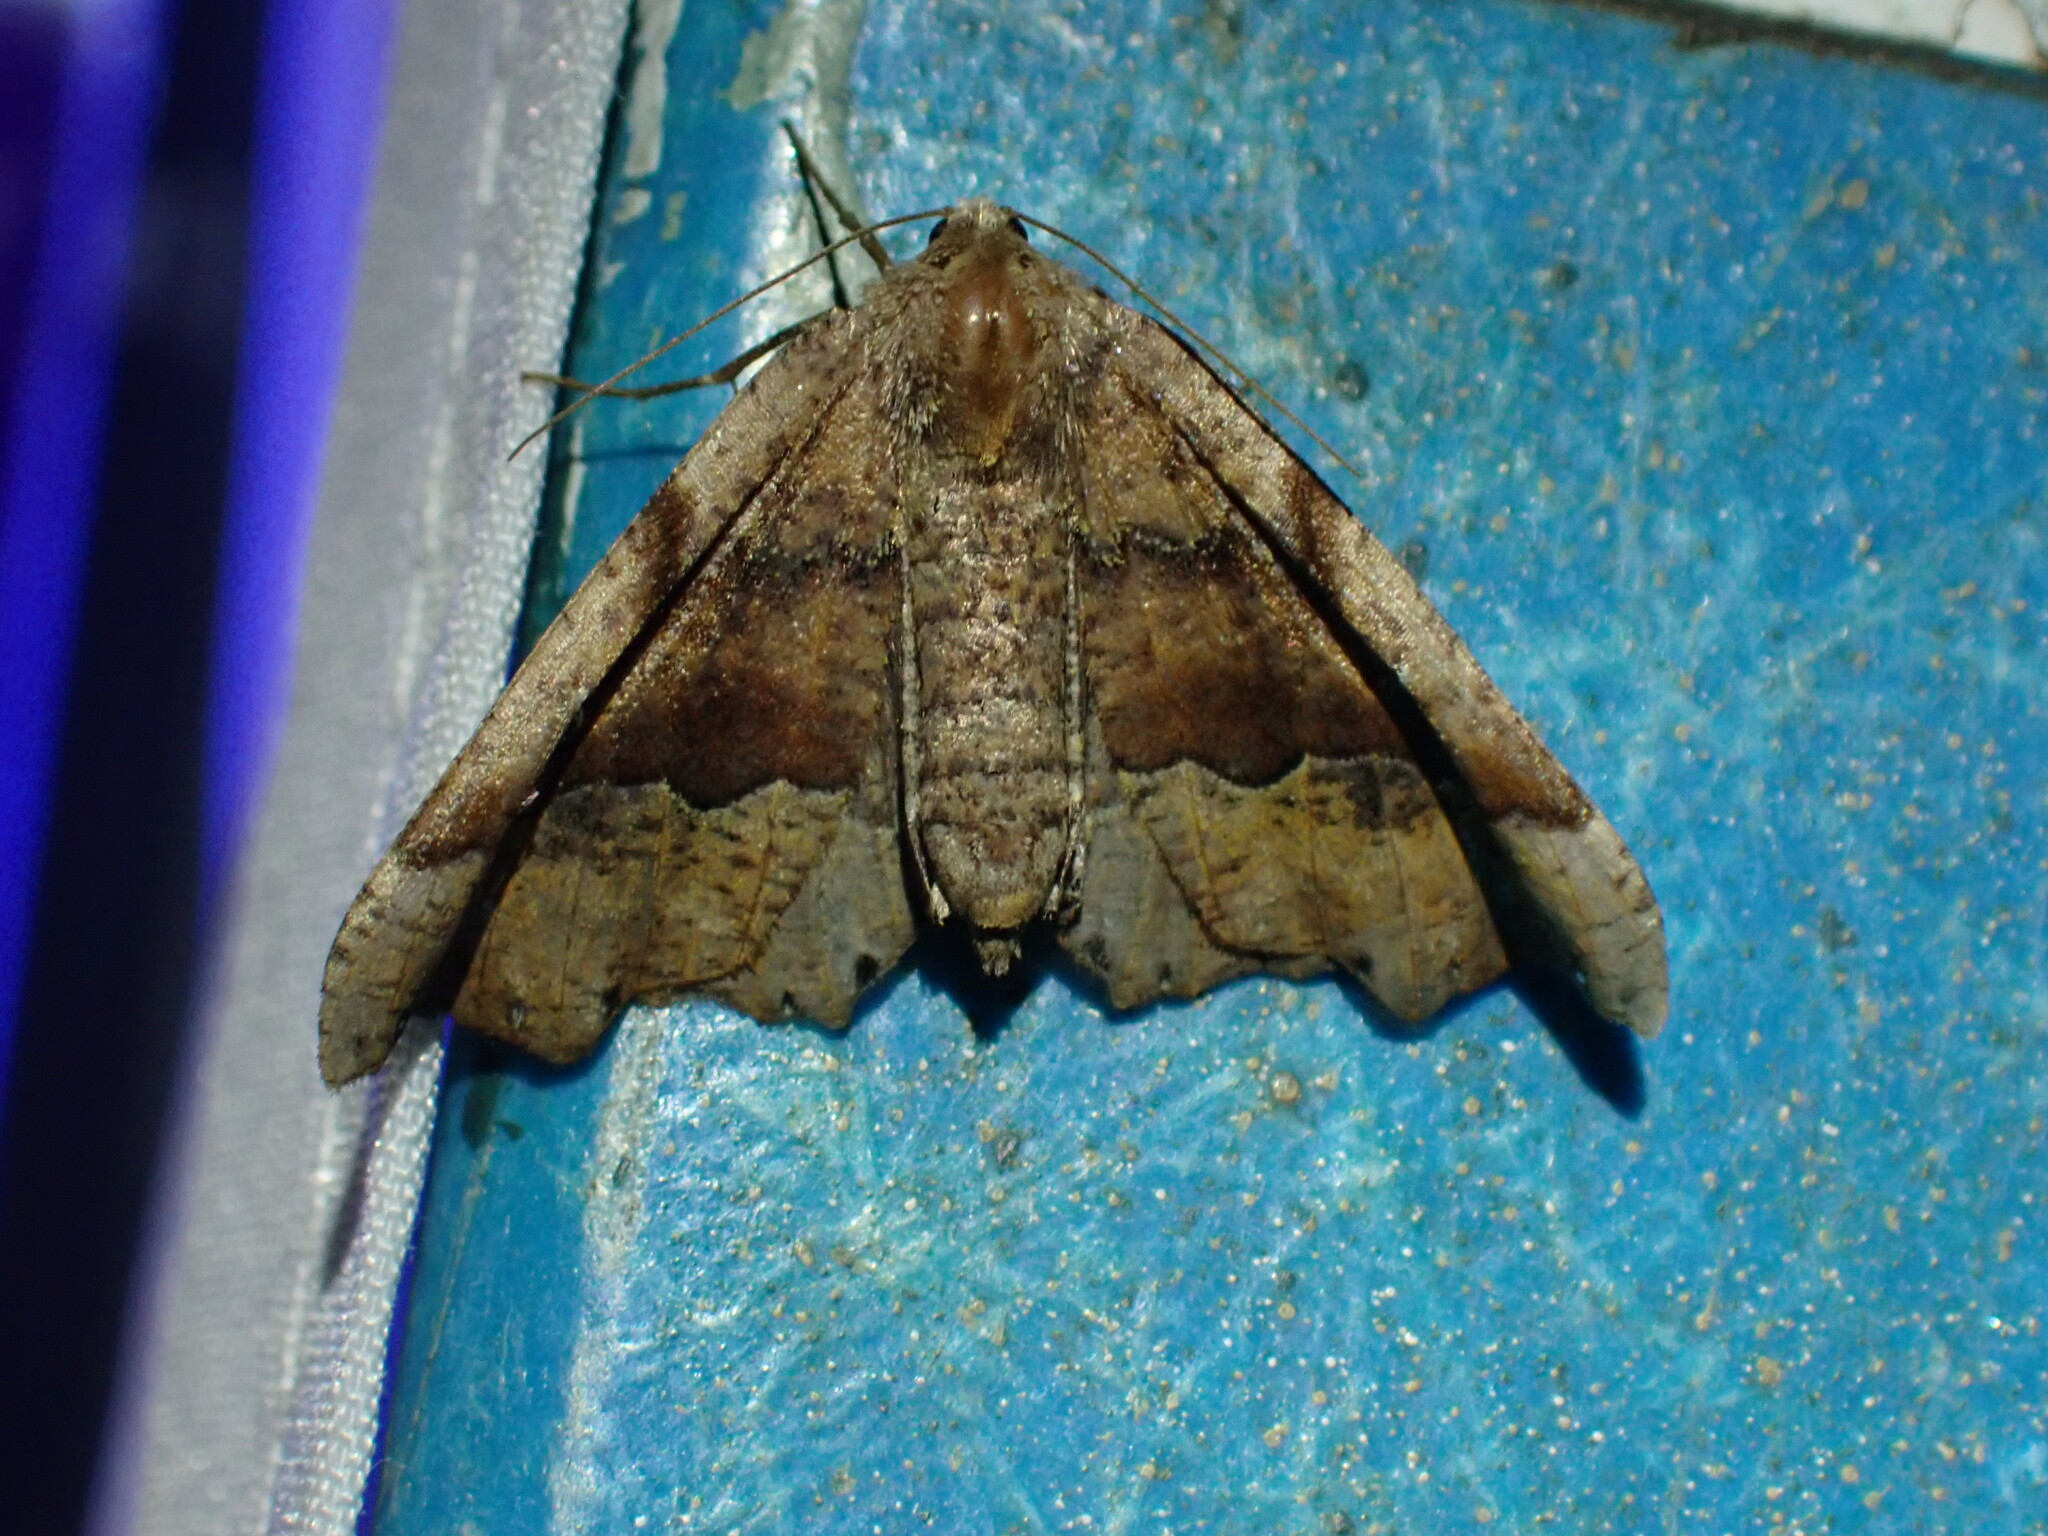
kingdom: Animalia
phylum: Arthropoda
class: Insecta
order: Lepidoptera
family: Geometridae
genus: Pero
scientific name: Pero morrisonaria
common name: Morrison's pero
